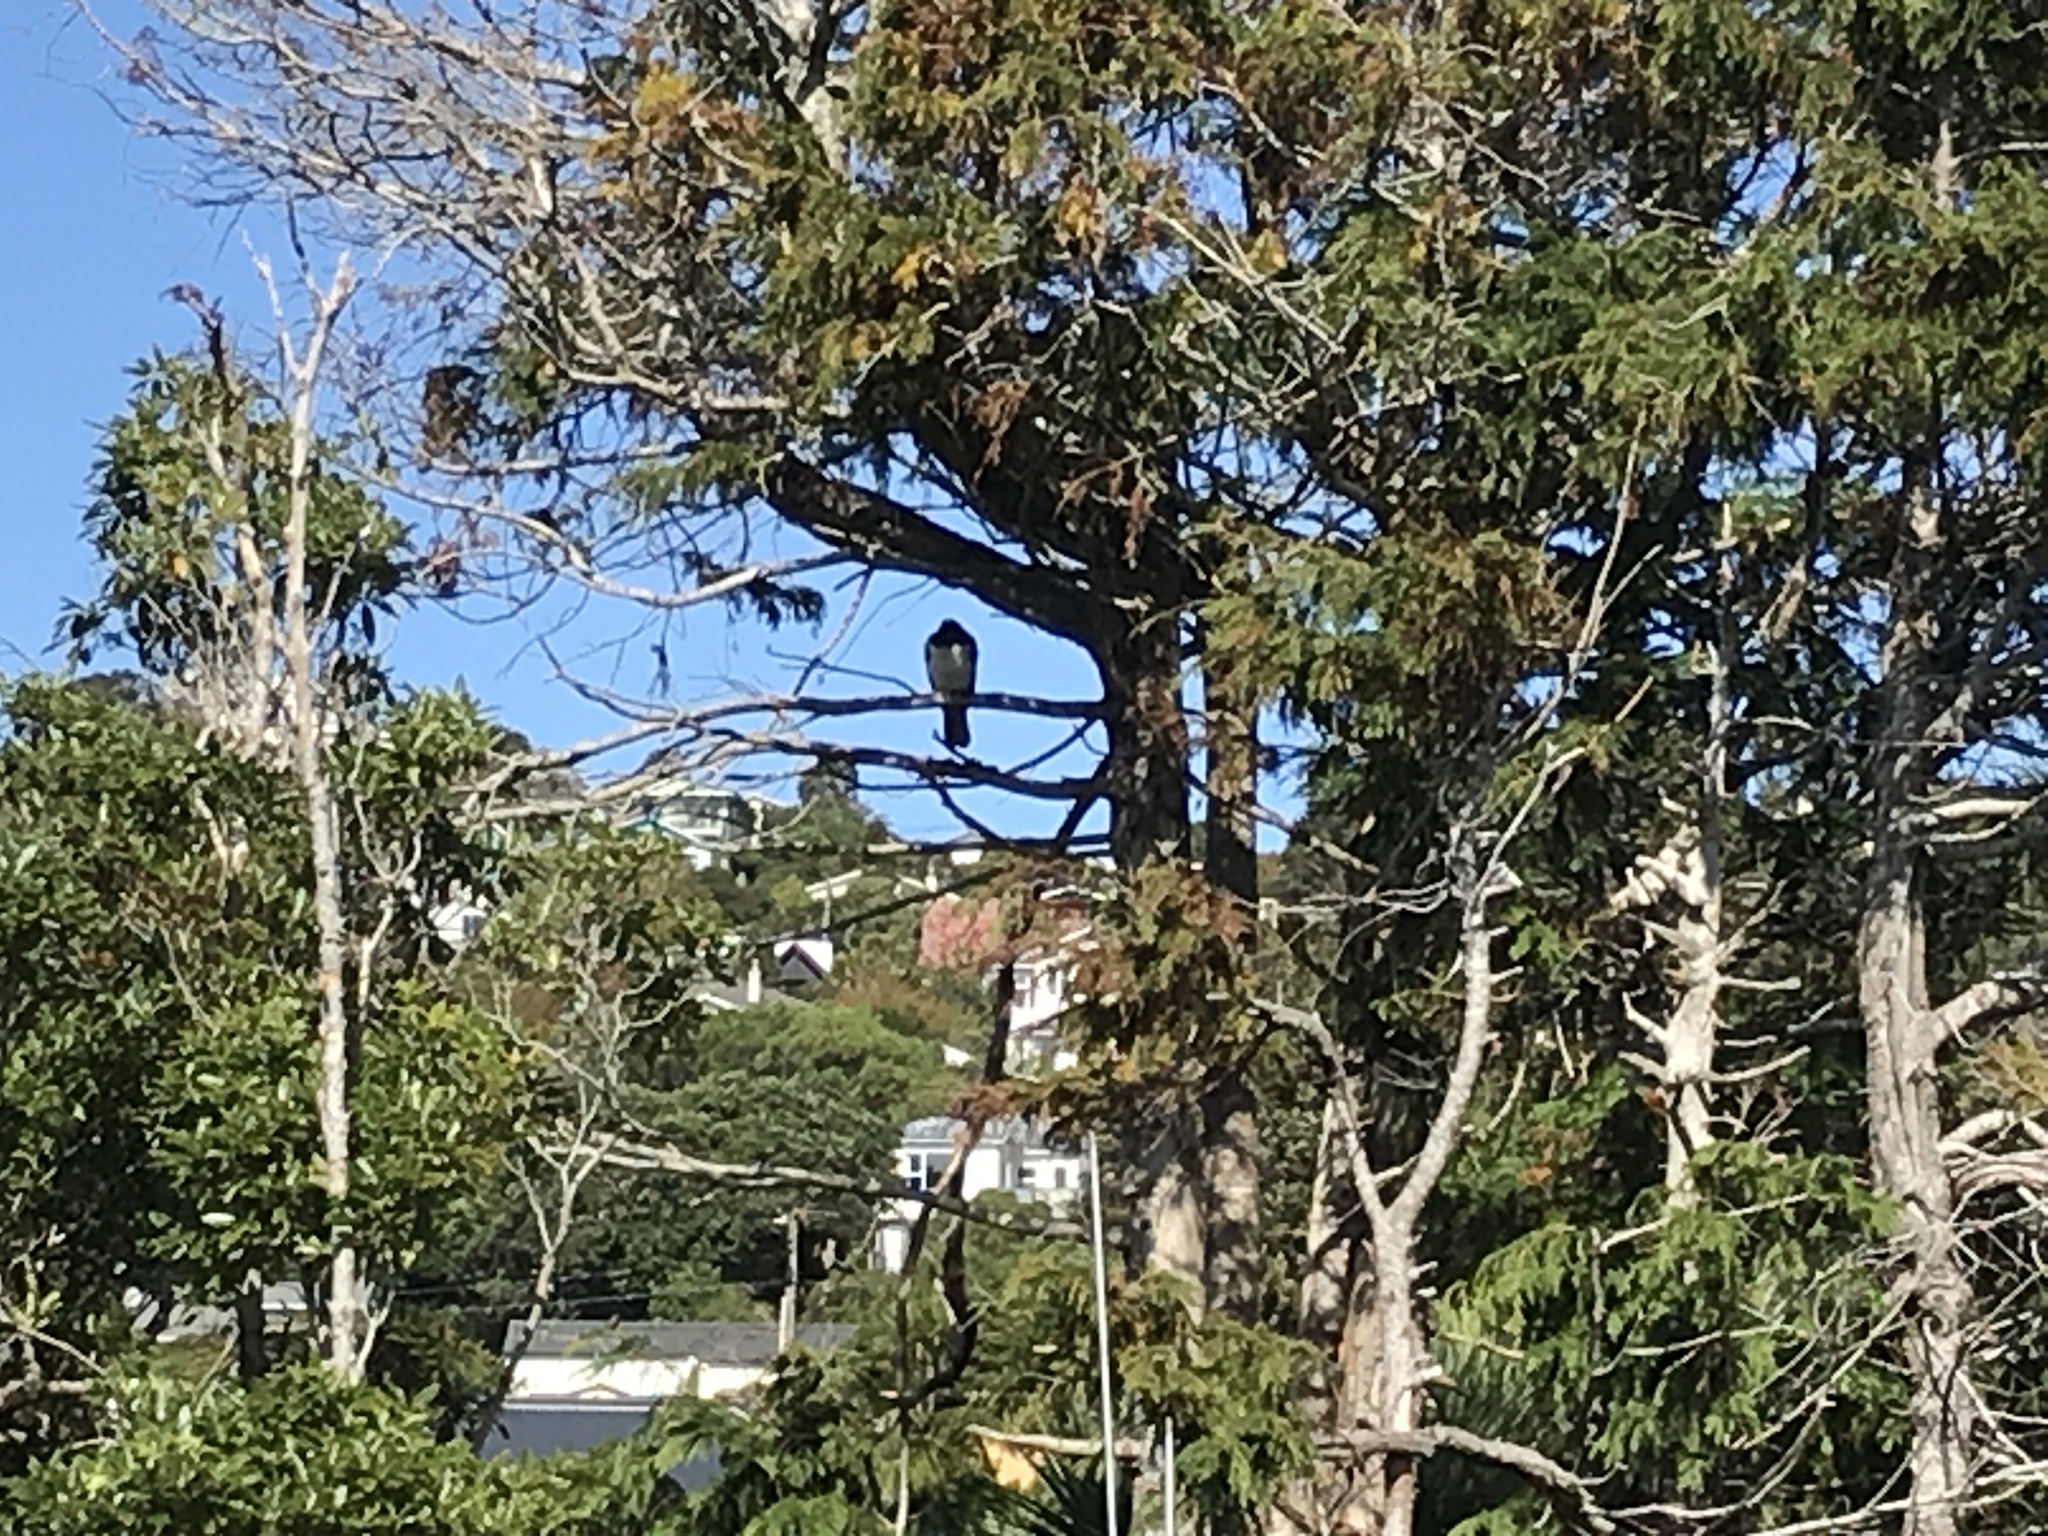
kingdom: Animalia
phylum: Chordata
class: Aves
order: Columbiformes
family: Columbidae
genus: Hemiphaga
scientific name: Hemiphaga novaeseelandiae
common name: New zealand pigeon
